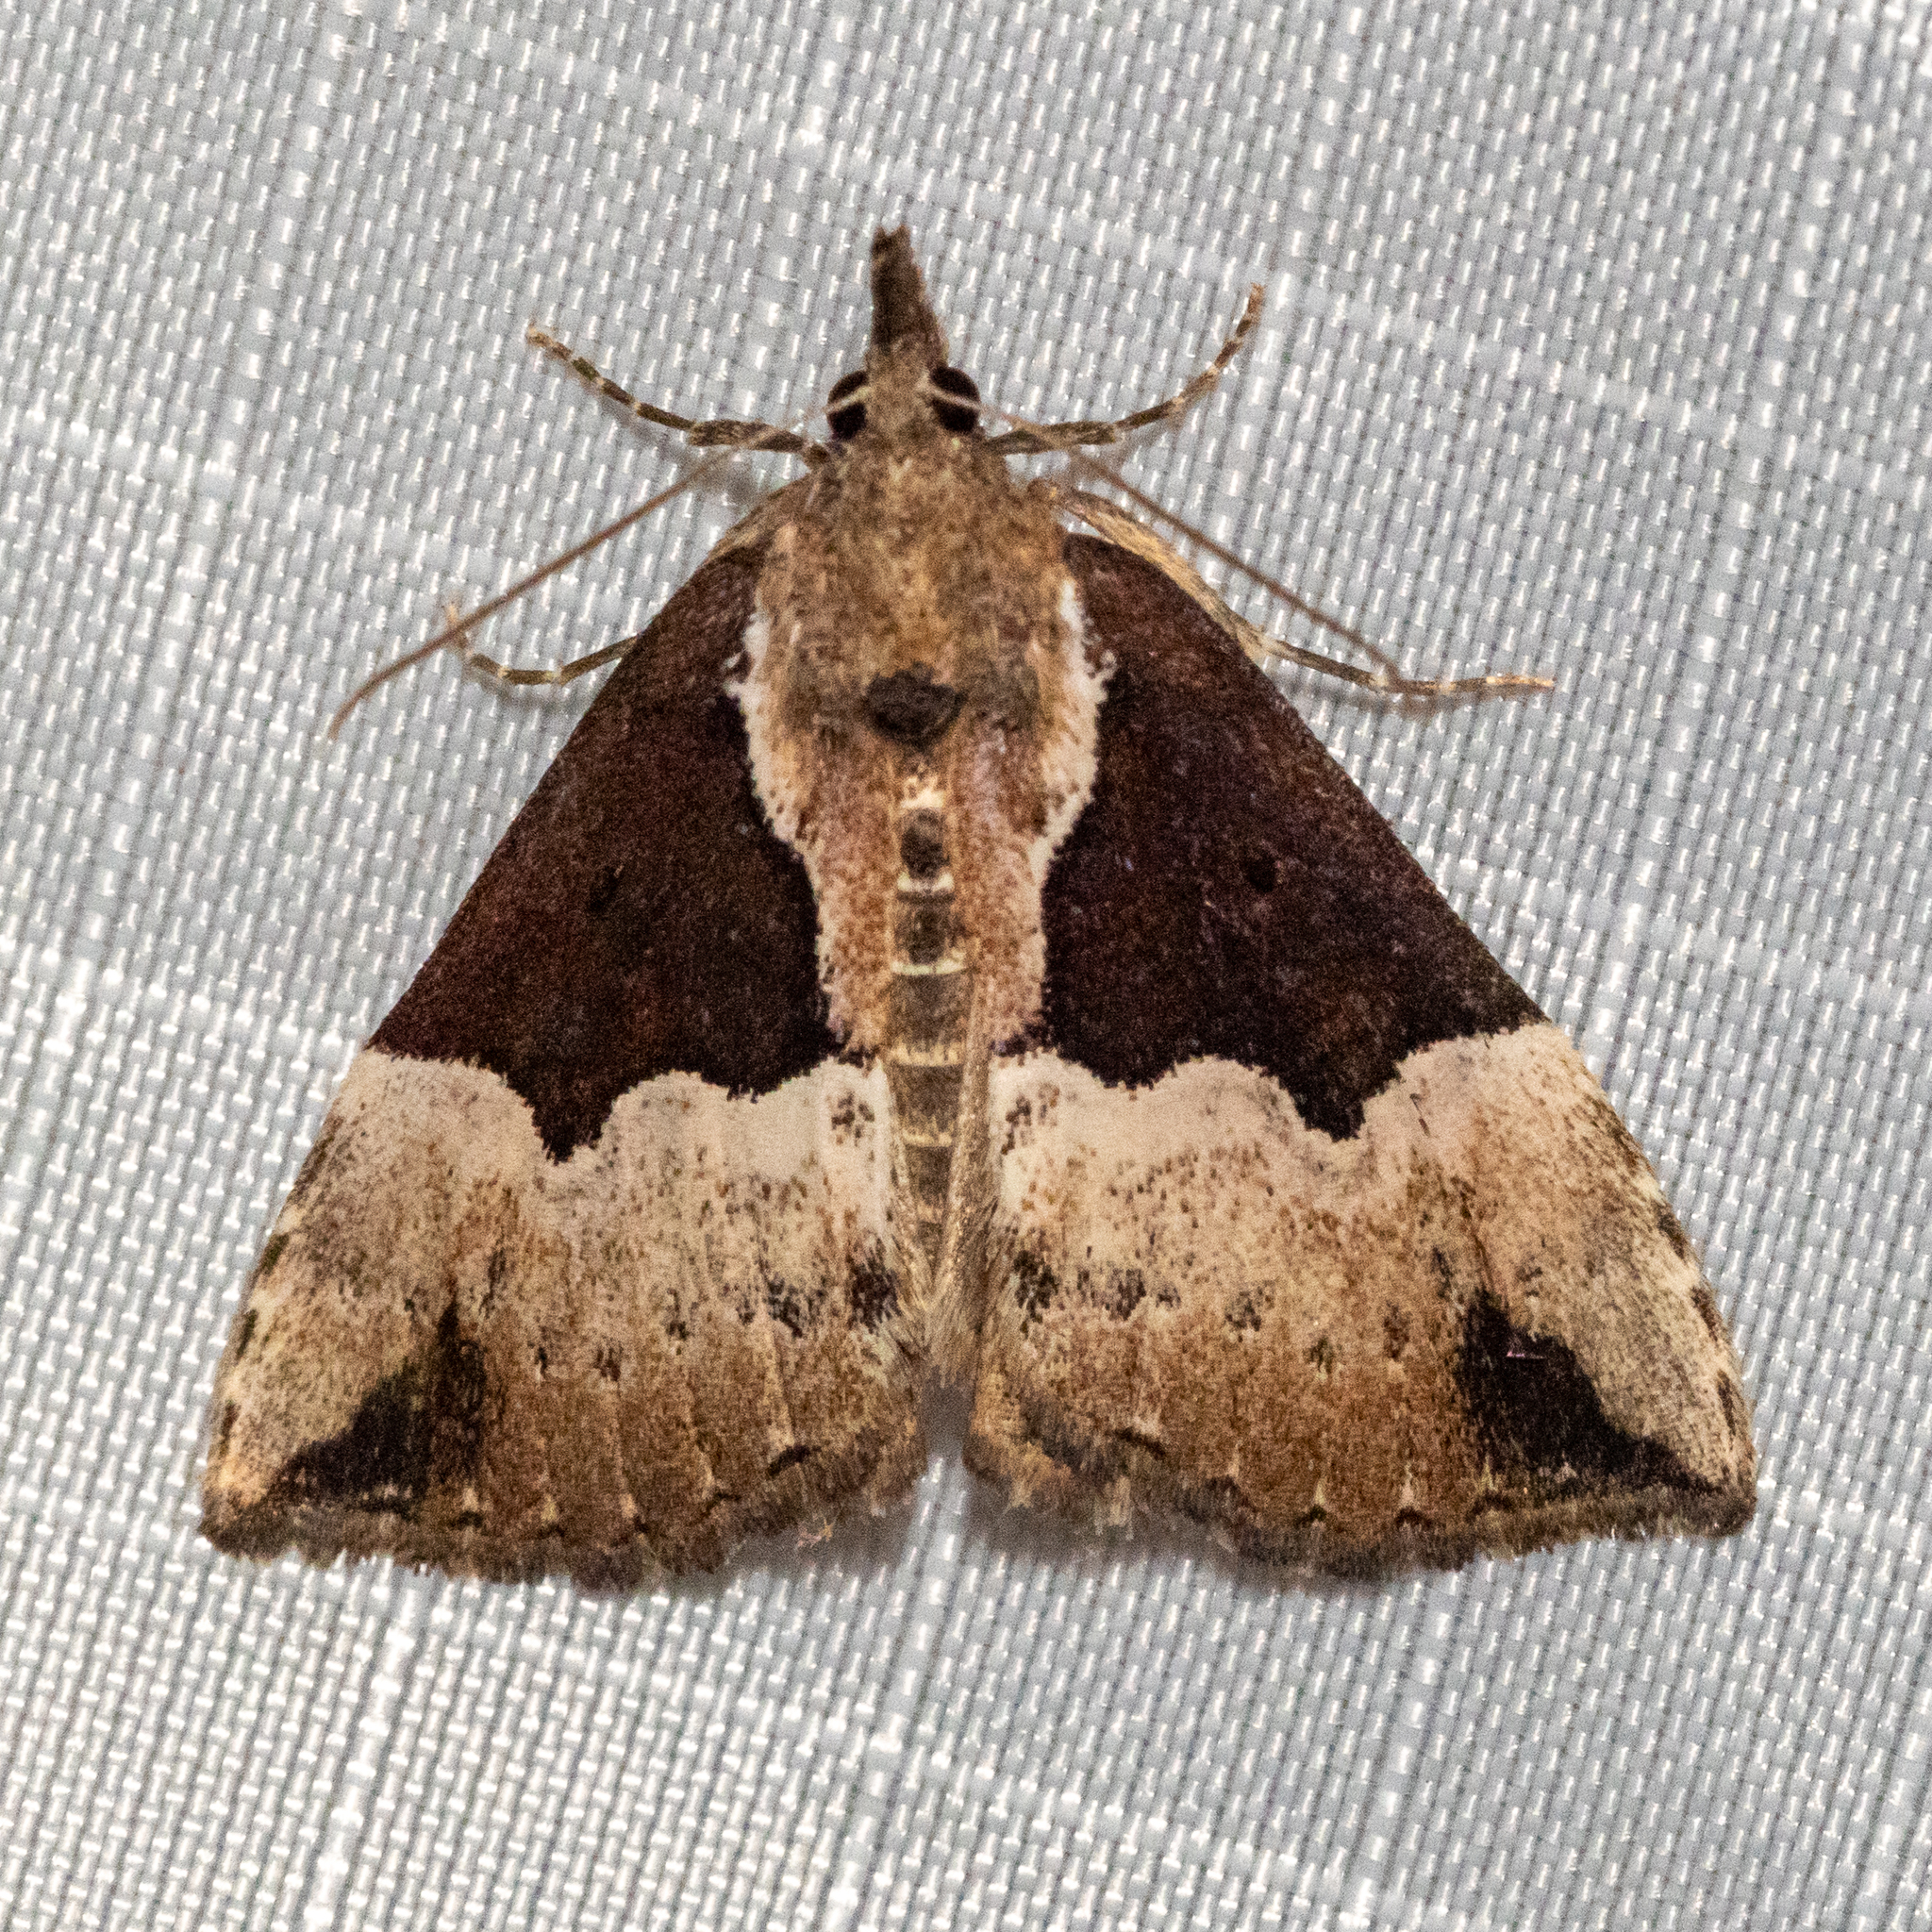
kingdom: Animalia
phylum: Arthropoda
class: Insecta
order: Lepidoptera
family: Erebidae
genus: Hypena
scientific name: Hypena bijugalis
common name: Dimorphic bomolocha moth
